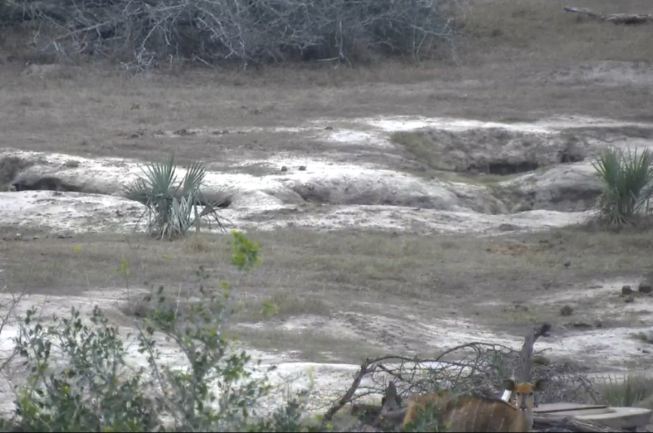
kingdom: Animalia
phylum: Chordata
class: Mammalia
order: Artiodactyla
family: Bovidae
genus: Tragelaphus
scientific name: Tragelaphus angasii
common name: Nyala
